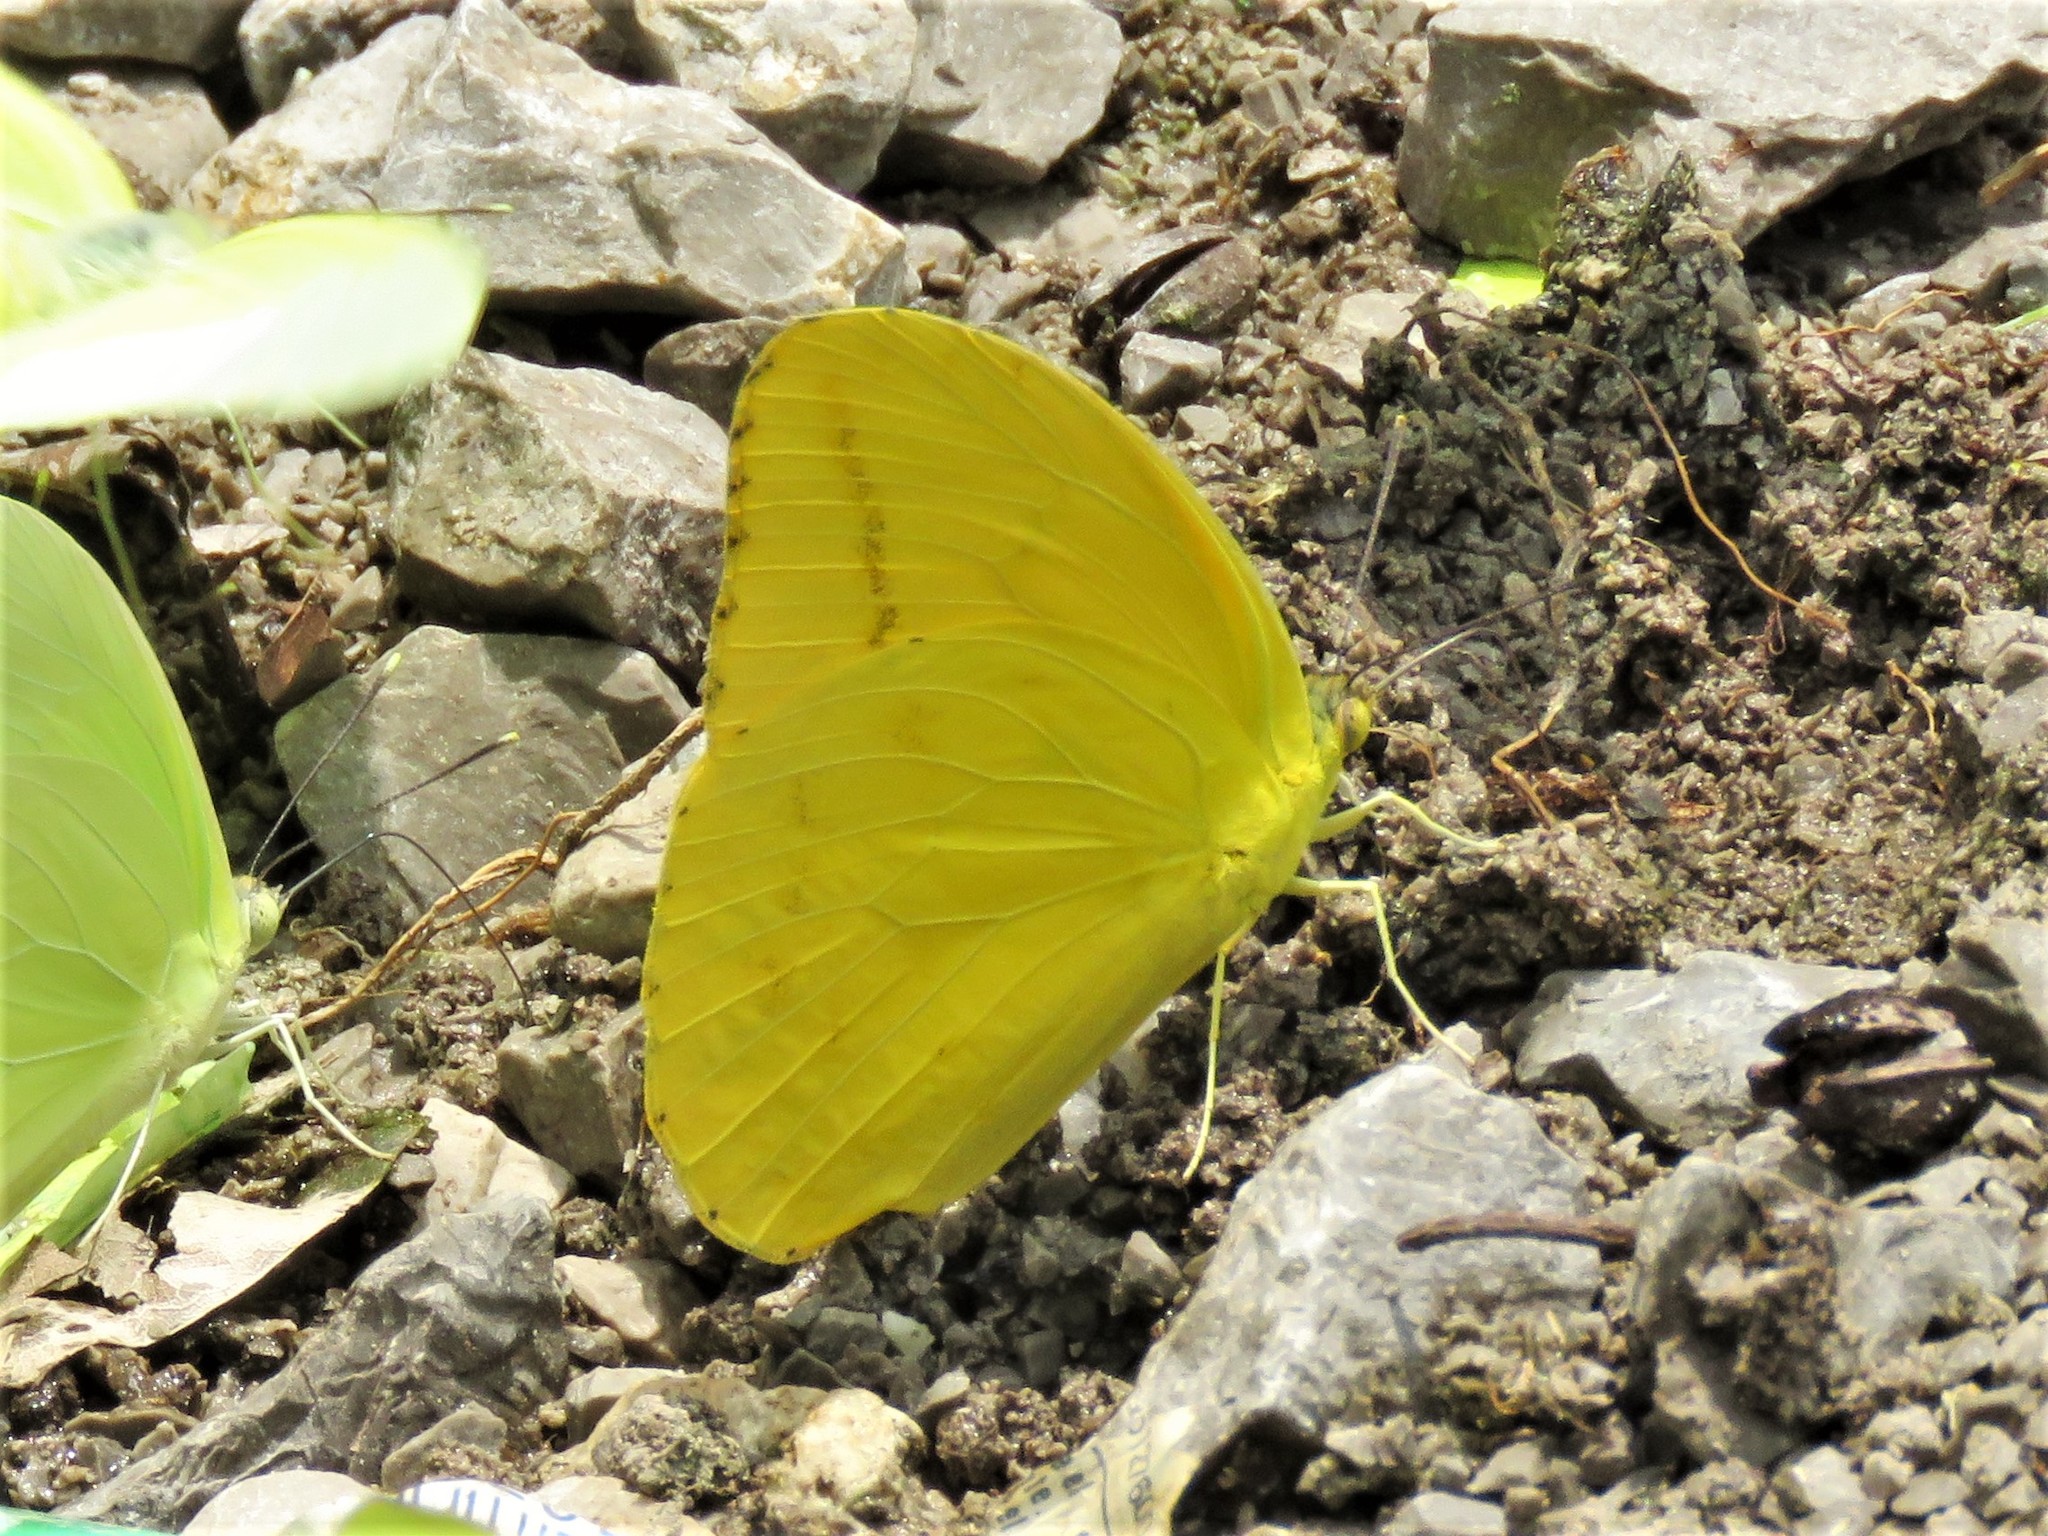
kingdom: Animalia
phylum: Arthropoda
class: Insecta
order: Lepidoptera
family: Pieridae
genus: Phoebis
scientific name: Phoebis agarithe
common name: Large orange sulphur
